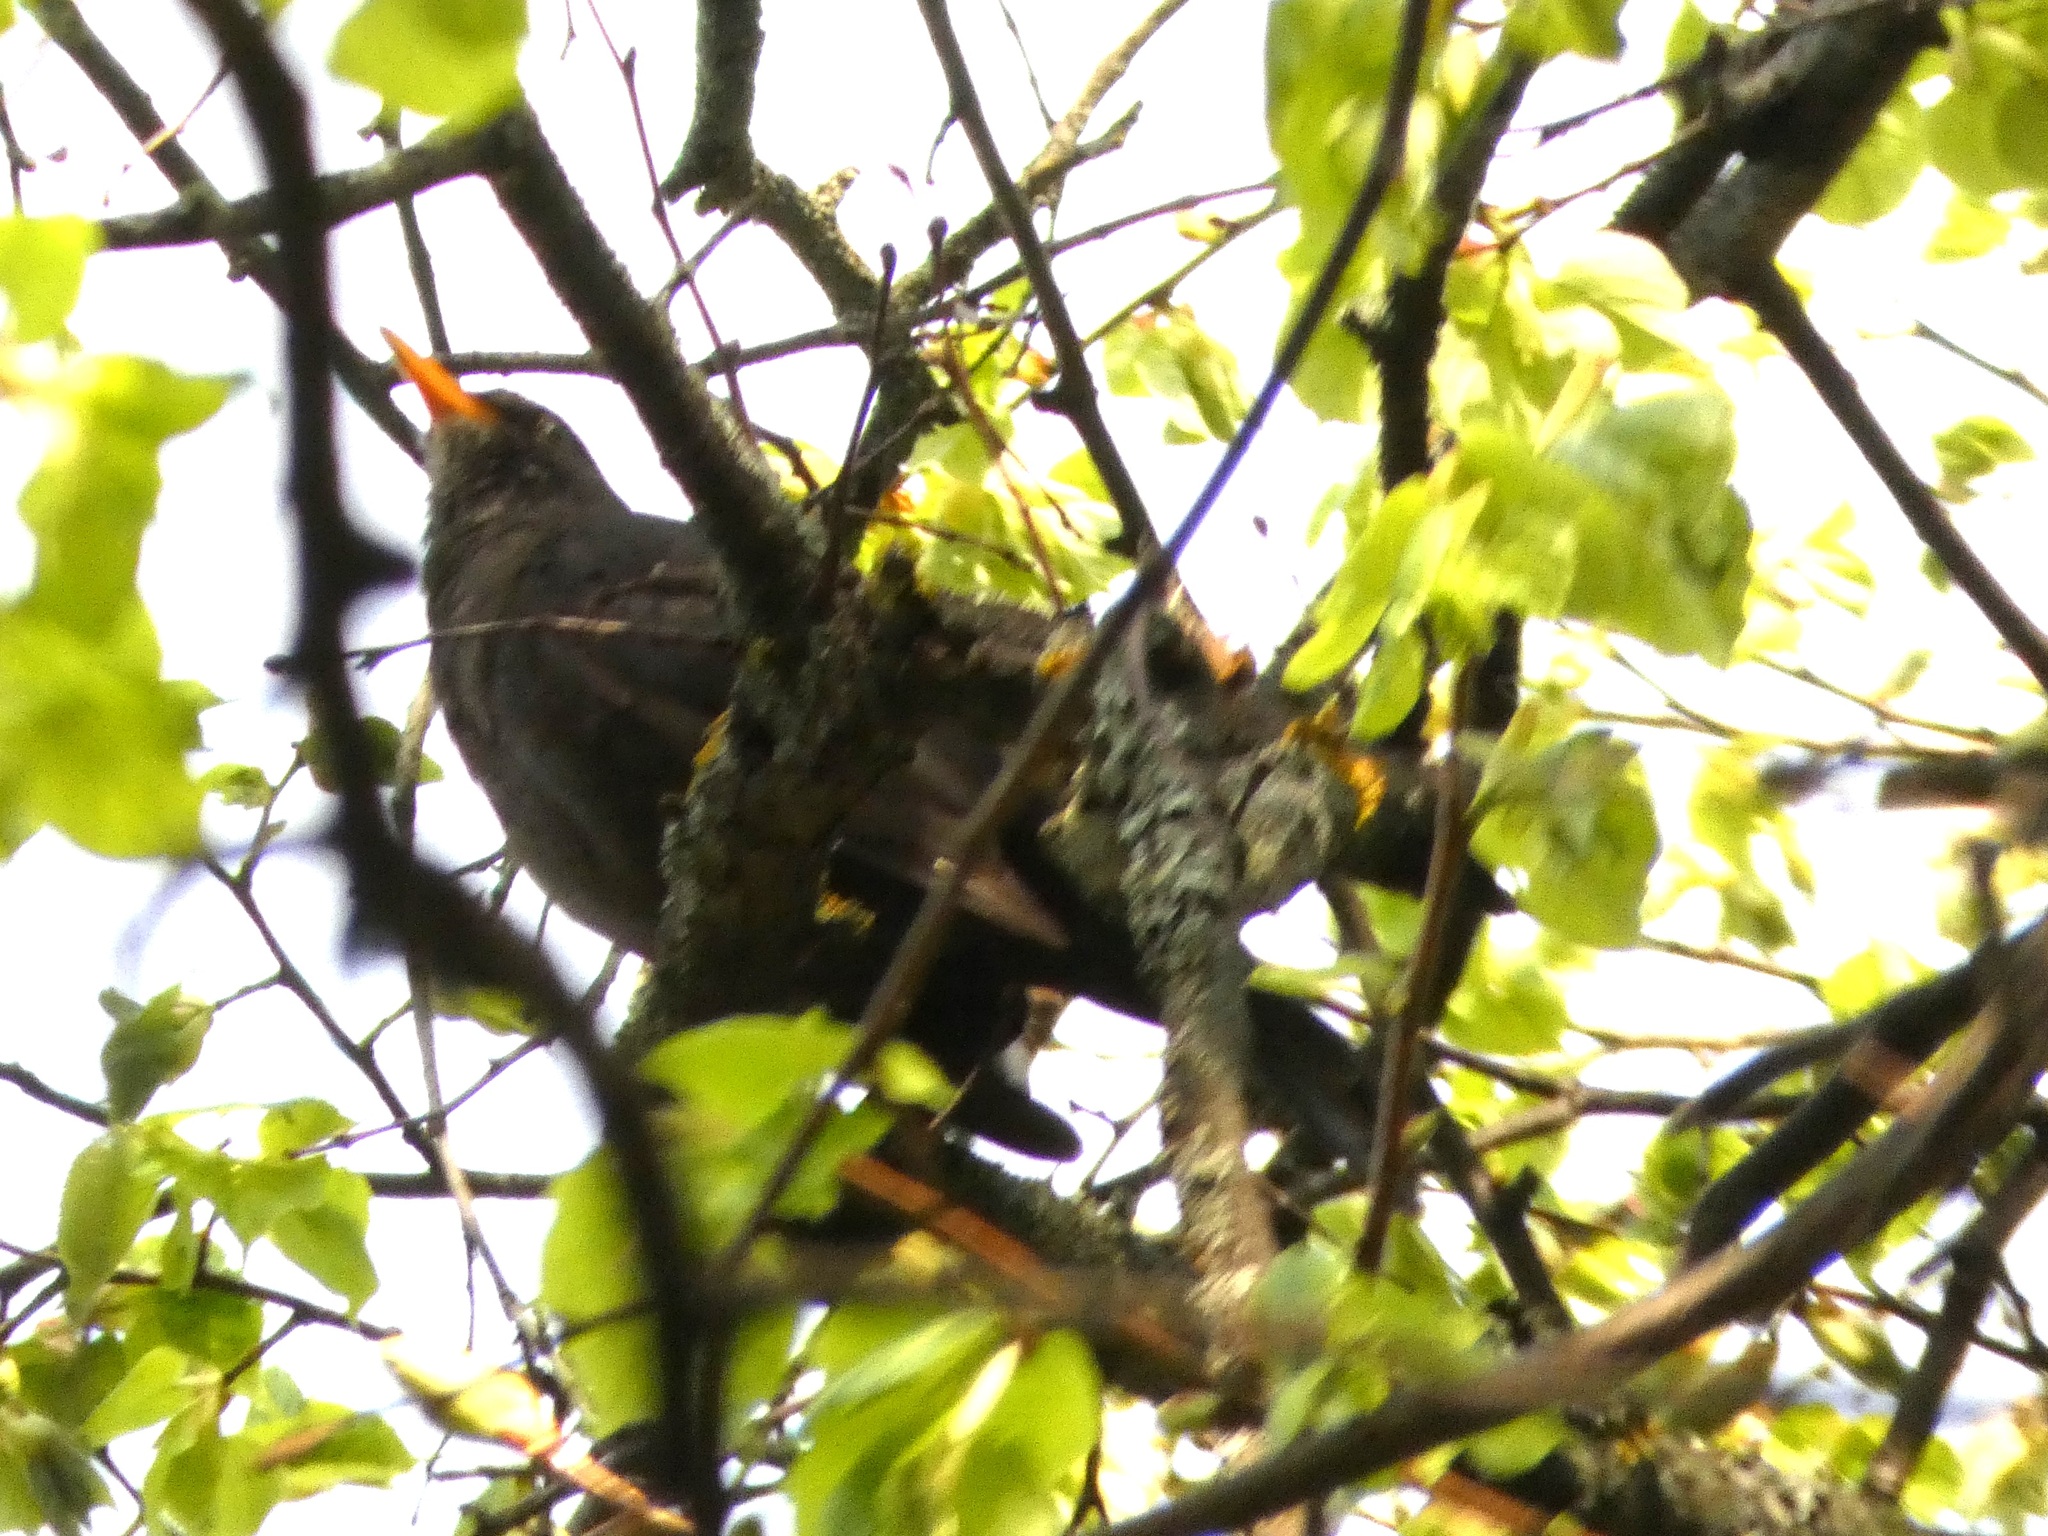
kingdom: Animalia
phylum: Chordata
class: Aves
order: Passeriformes
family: Turdidae
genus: Turdus
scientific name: Turdus merula
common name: Common blackbird
